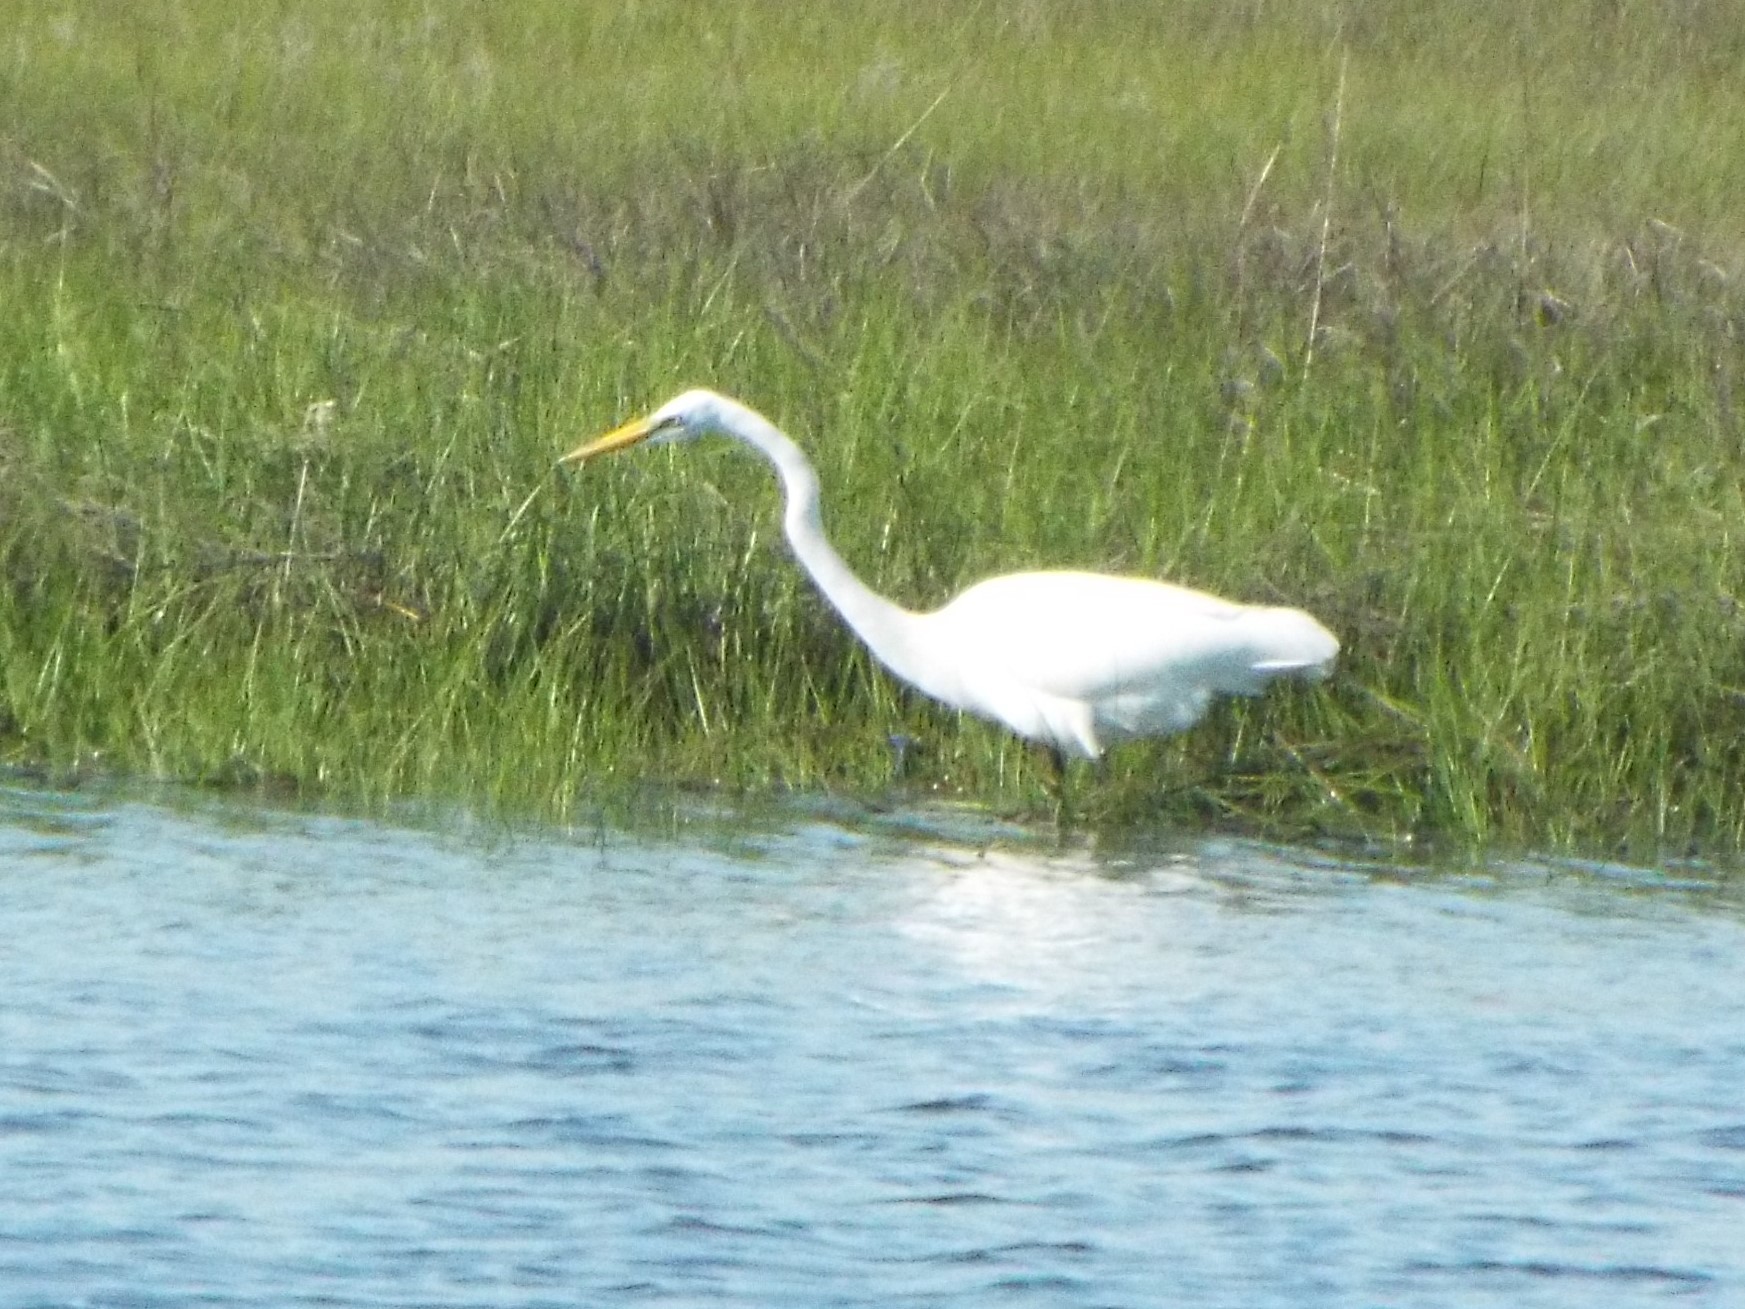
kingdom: Animalia
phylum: Chordata
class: Aves
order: Pelecaniformes
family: Ardeidae
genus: Ardea
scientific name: Ardea alba
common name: Great egret
